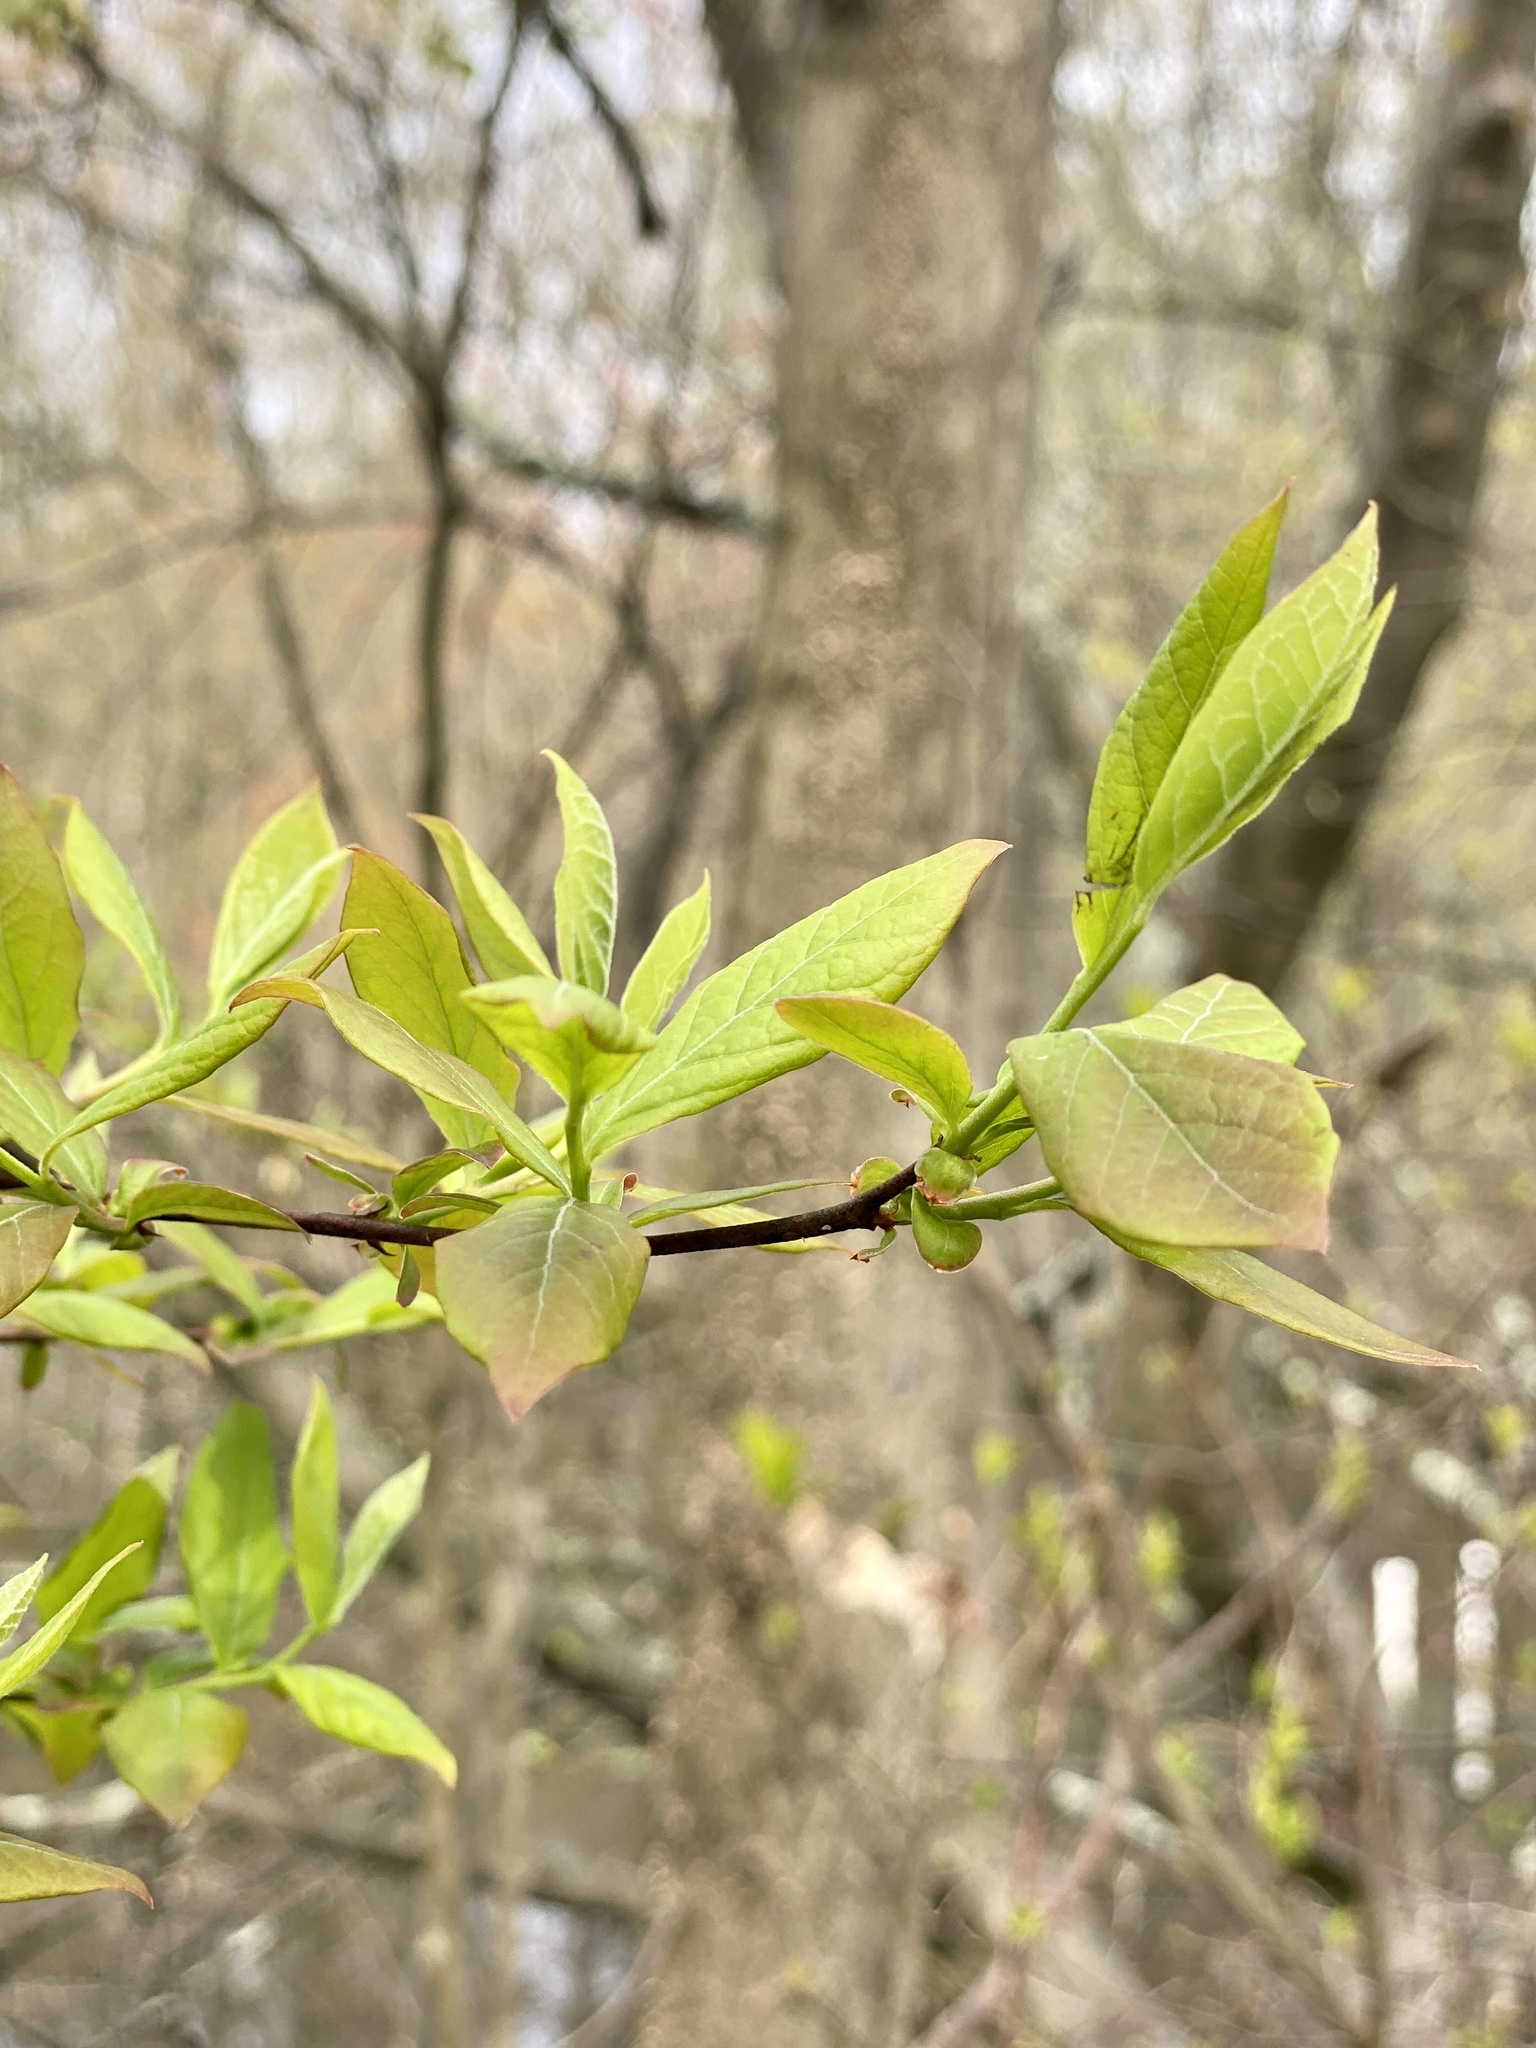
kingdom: Plantae
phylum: Tracheophyta
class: Magnoliopsida
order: Ericales
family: Ericaceae
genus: Vaccinium
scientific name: Vaccinium corymbosum
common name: Blueberry
